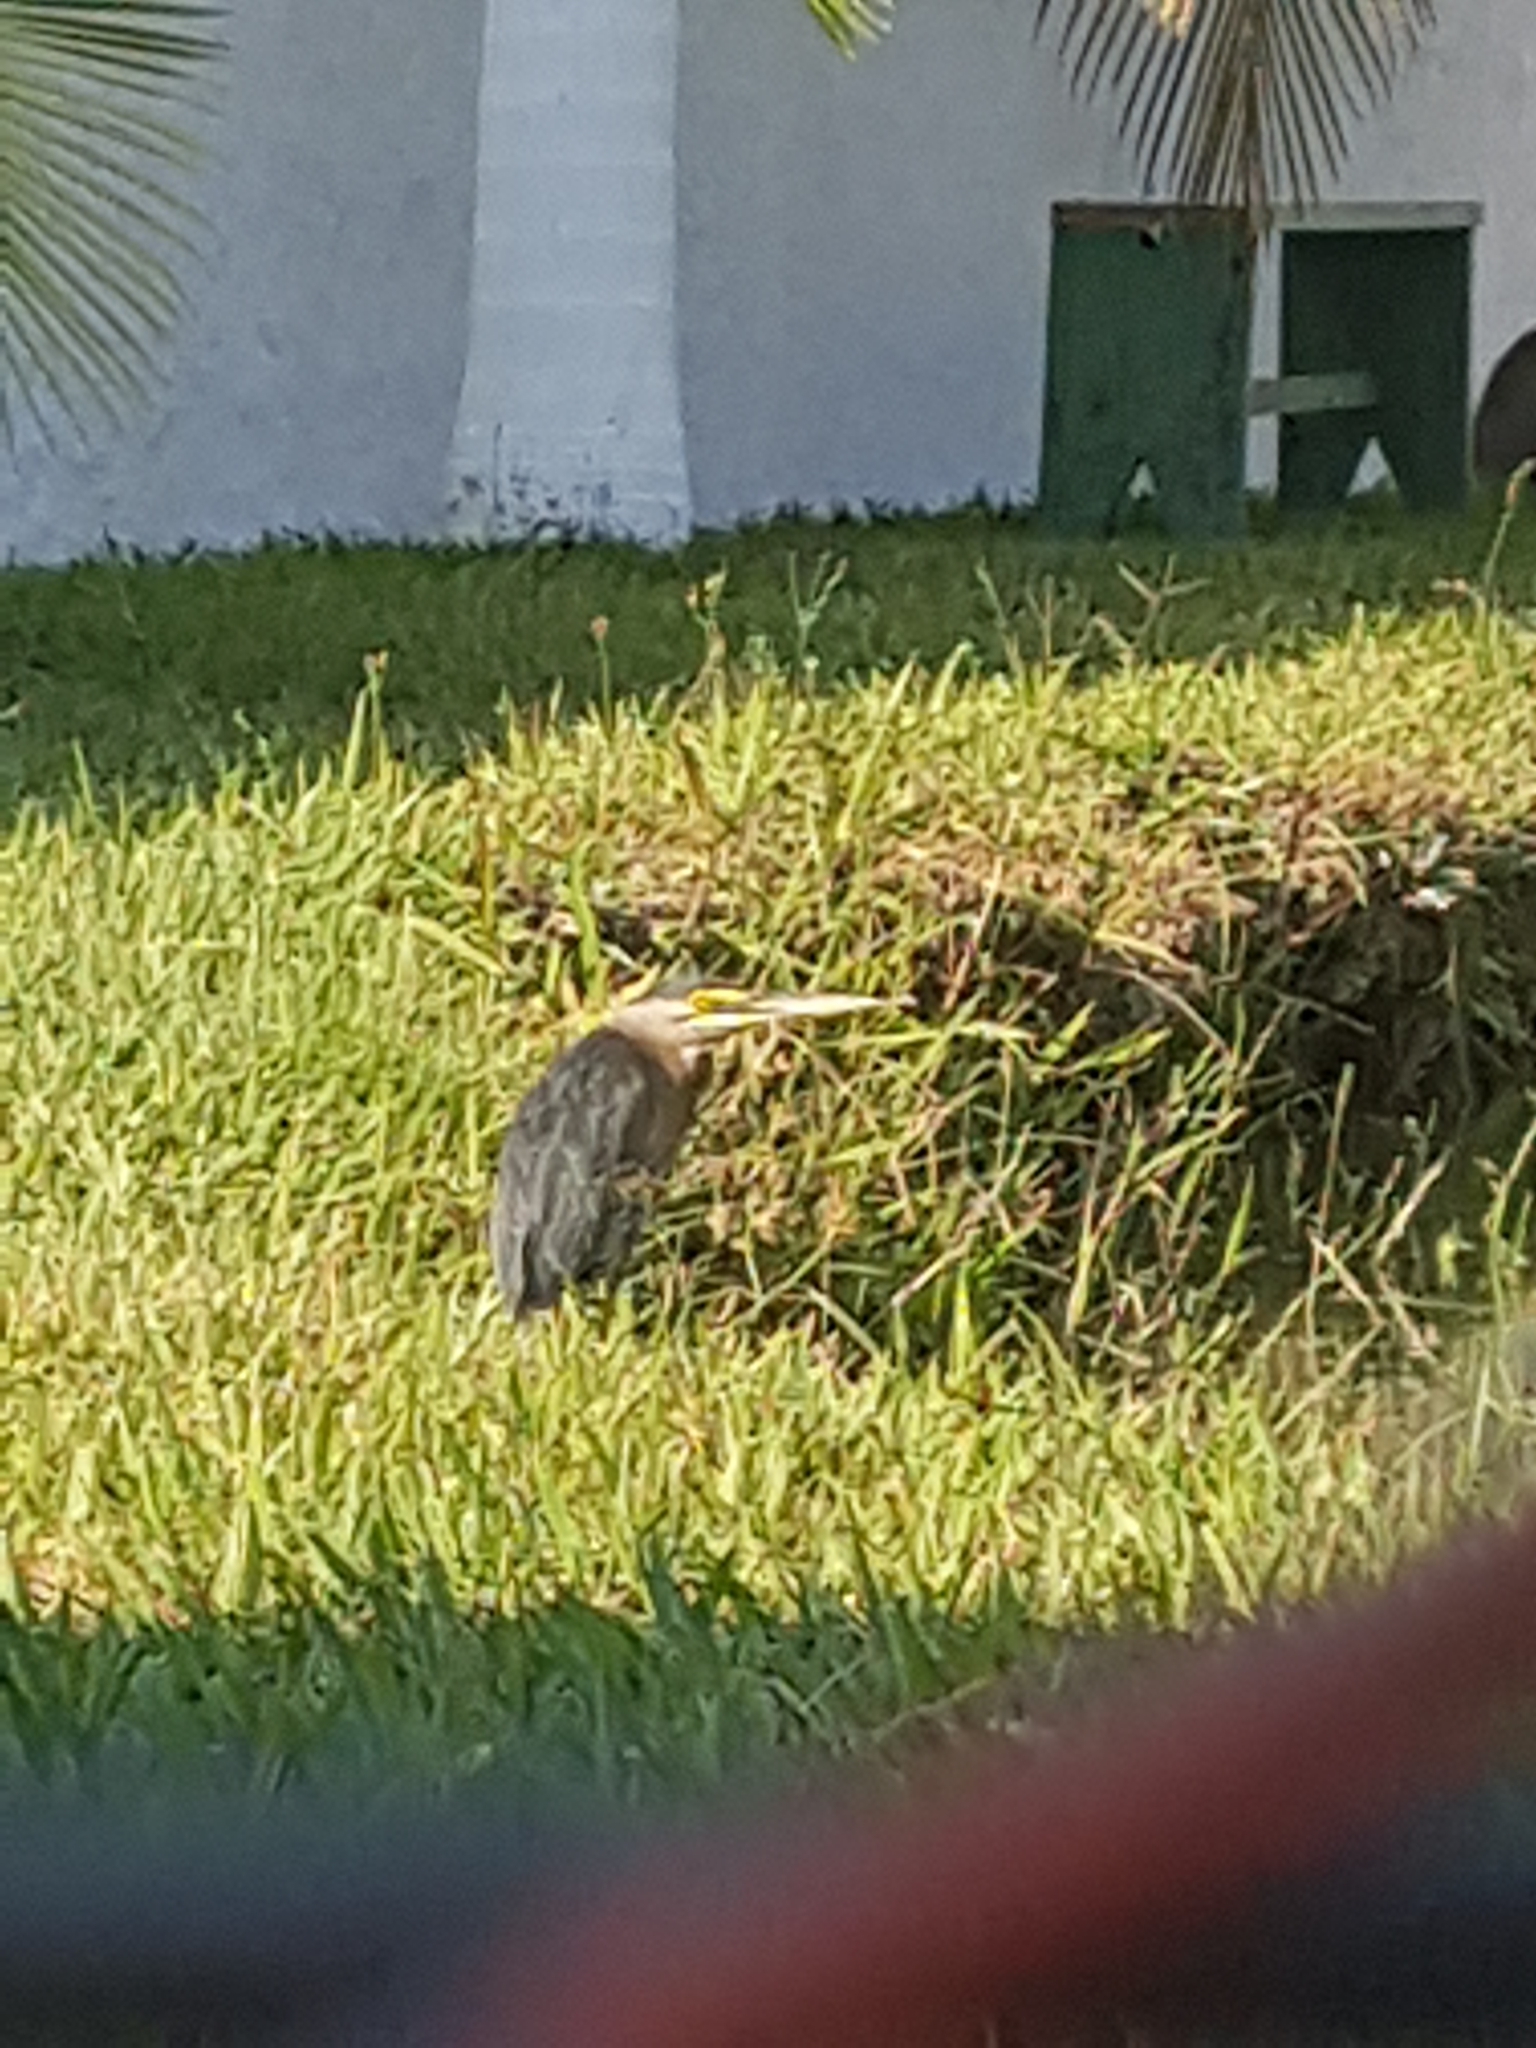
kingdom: Animalia
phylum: Chordata
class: Aves
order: Pelecaniformes
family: Ardeidae
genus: Butorides
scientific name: Butorides striata
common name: Striated heron
